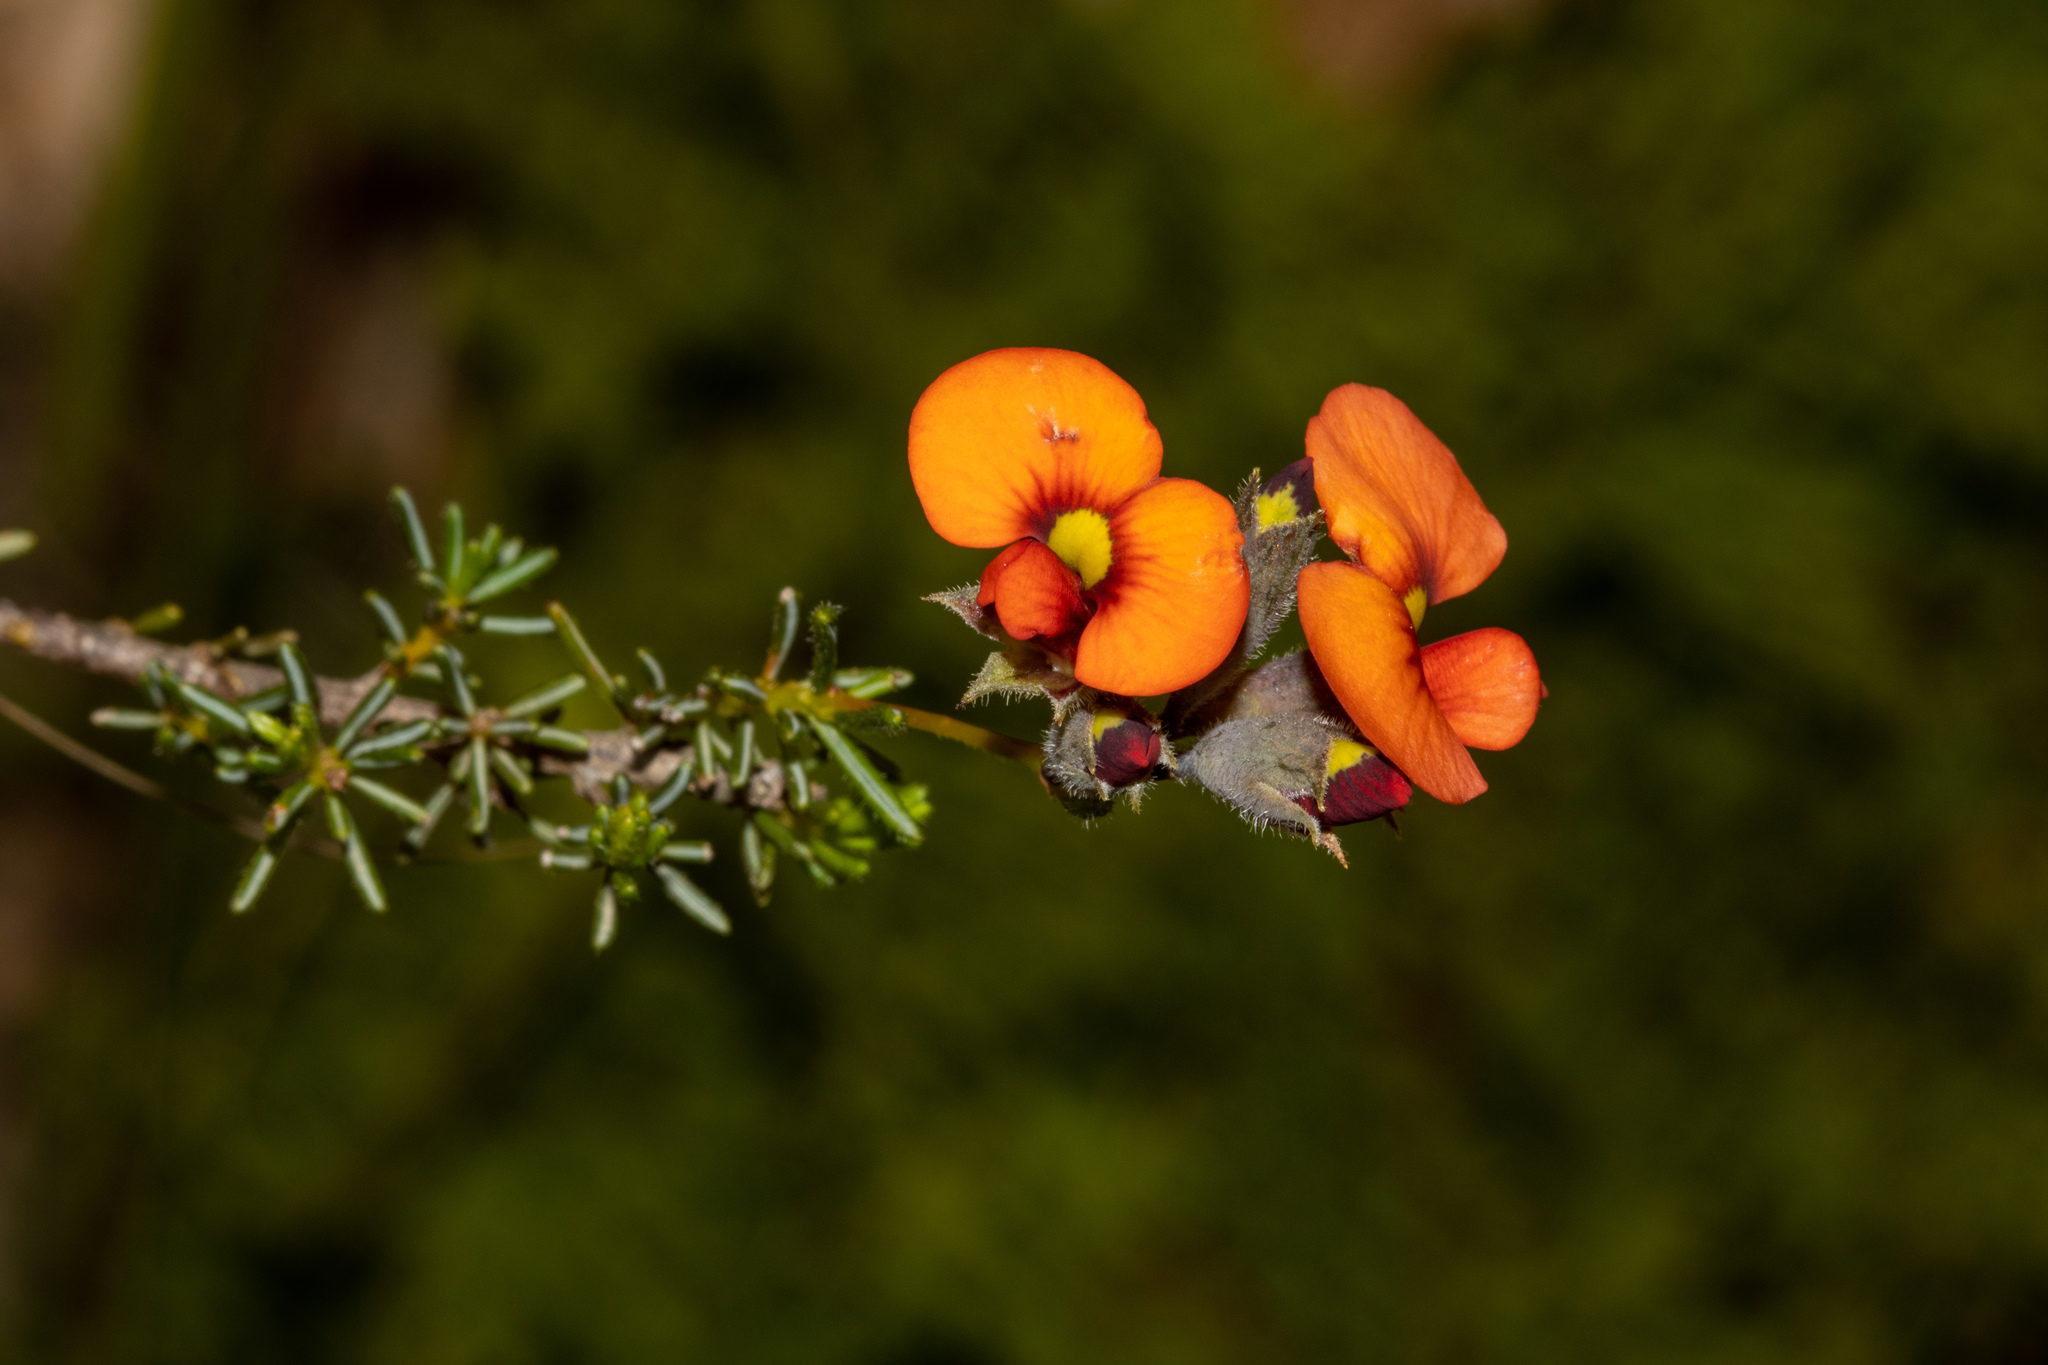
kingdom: Plantae
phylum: Tracheophyta
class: Magnoliopsida
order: Fabales
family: Fabaceae
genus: Dillwynia
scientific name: Dillwynia hispida
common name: Red parrot-pea
